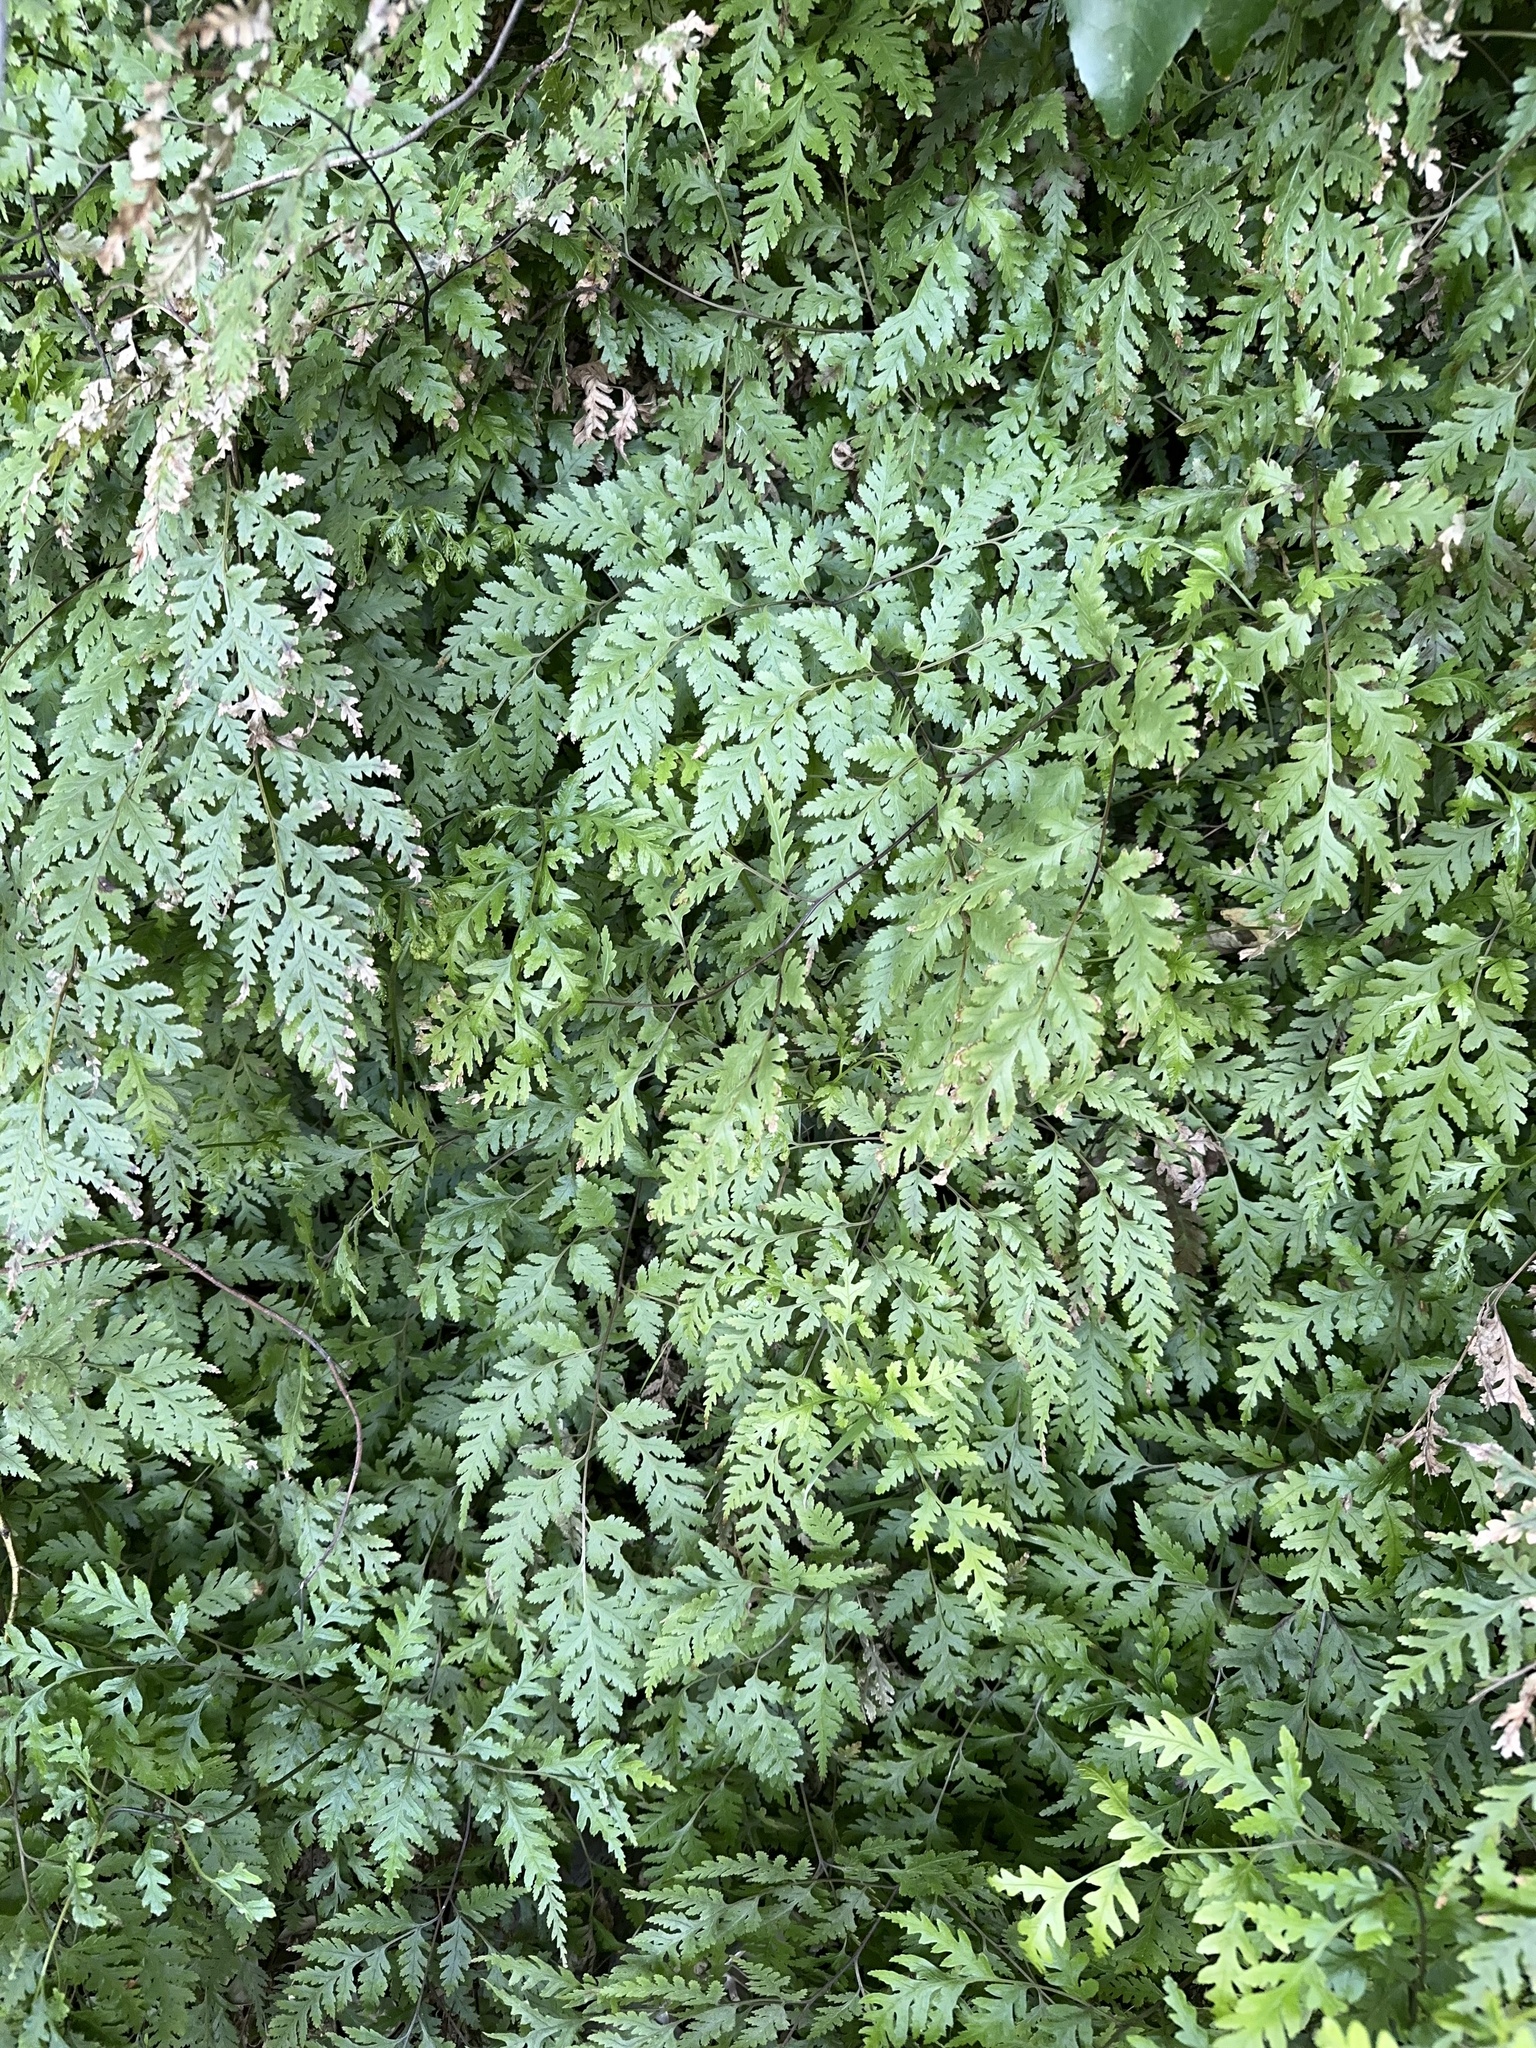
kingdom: Plantae
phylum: Tracheophyta
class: Polypodiopsida
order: Polypodiales
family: Pteridaceae
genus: Pteris
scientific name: Pteris macilenta
